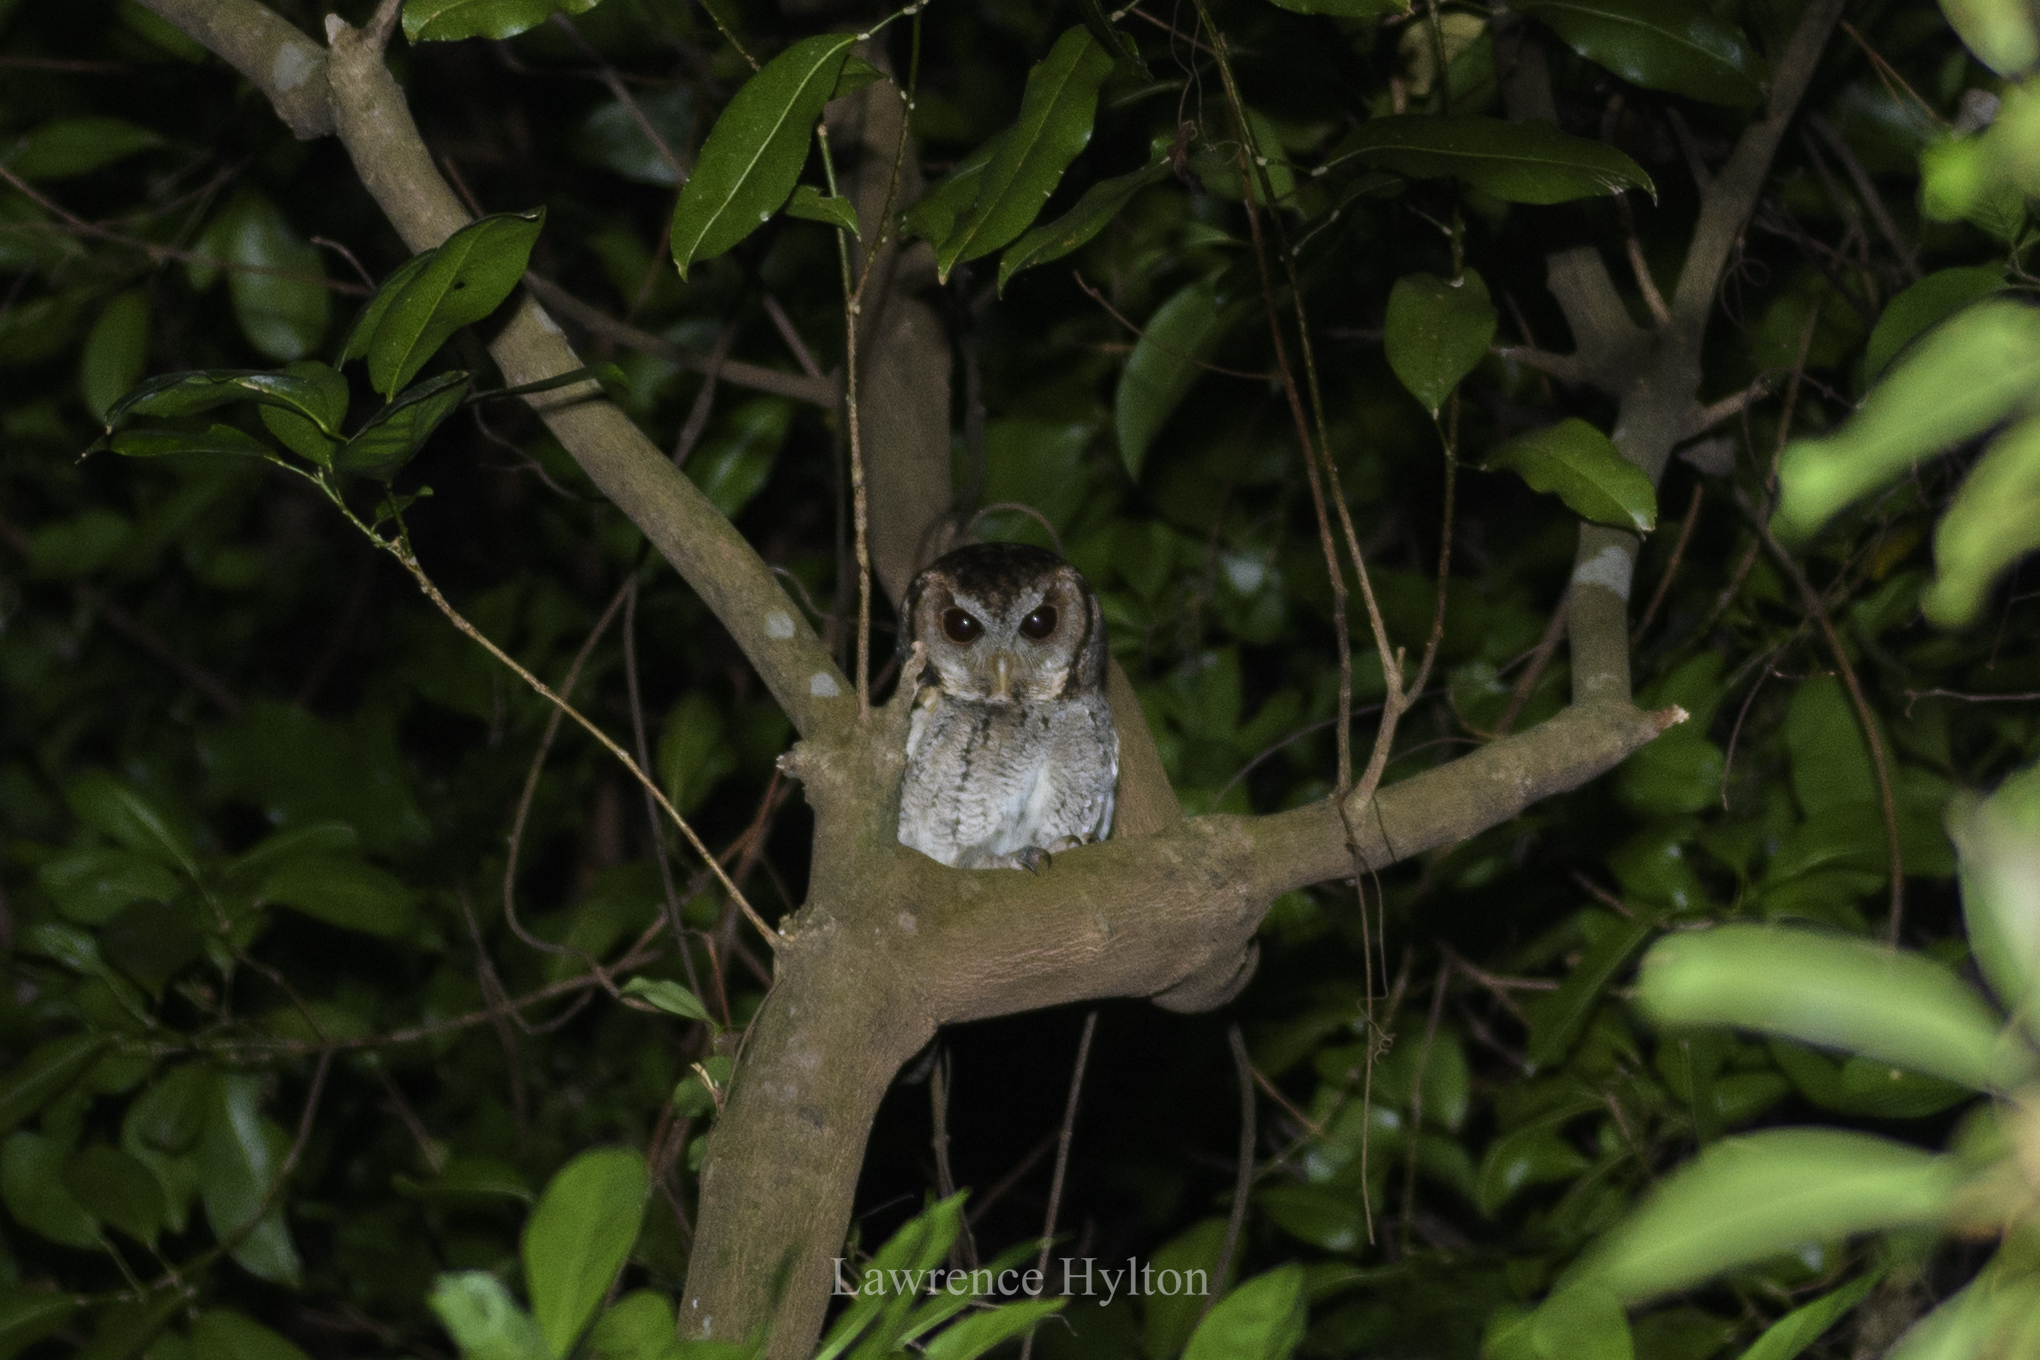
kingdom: Animalia
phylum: Chordata
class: Aves
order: Strigiformes
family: Strigidae
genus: Otus
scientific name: Otus lettia
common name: Collared scops owl
